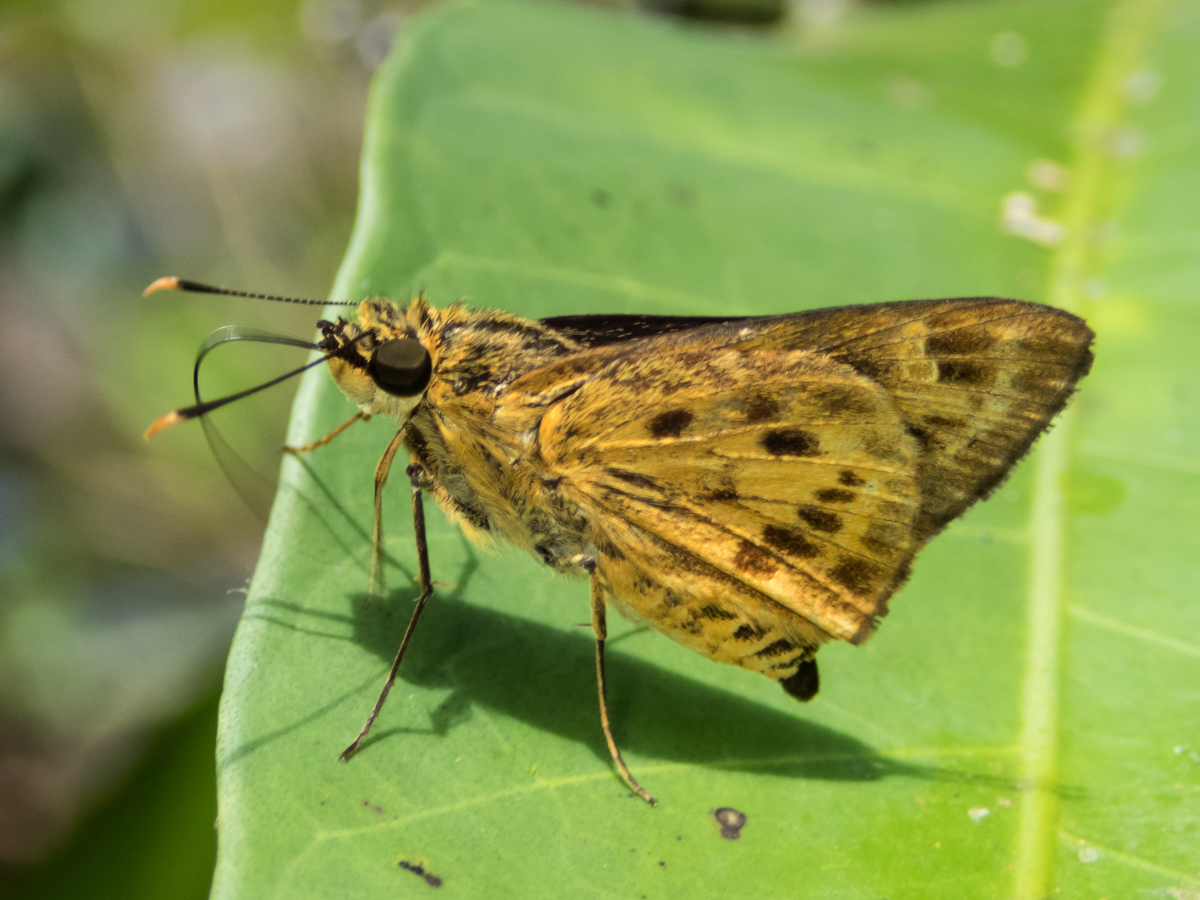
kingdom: Animalia
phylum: Arthropoda
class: Insecta
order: Lepidoptera
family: Hesperiidae
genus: Thoressa
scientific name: Thoressa masoni
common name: Golden ace
